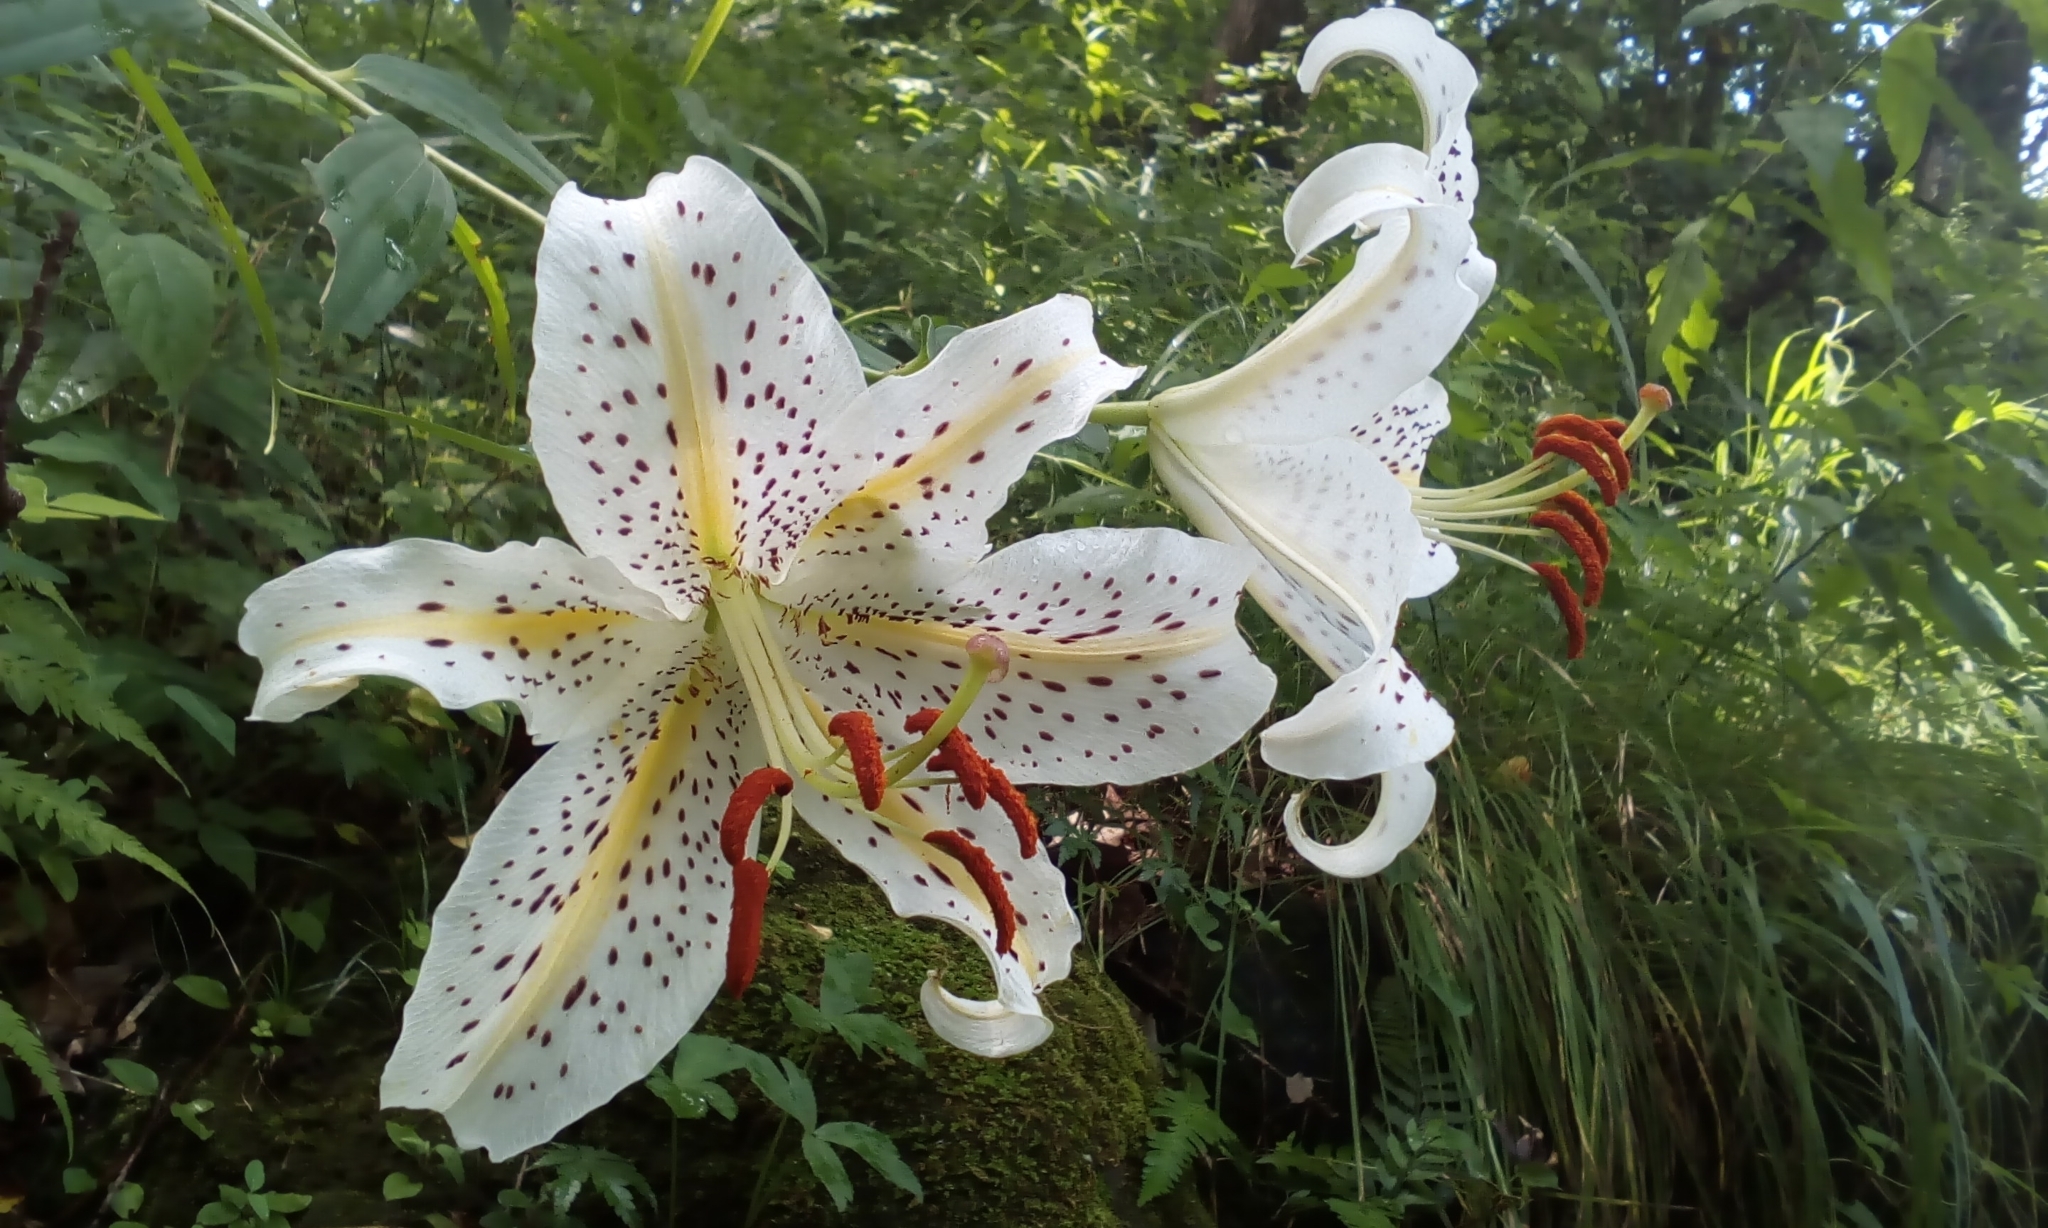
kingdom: Plantae
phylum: Tracheophyta
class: Liliopsida
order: Liliales
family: Liliaceae
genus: Lilium
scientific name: Lilium auratum
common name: Golden-ray lily
